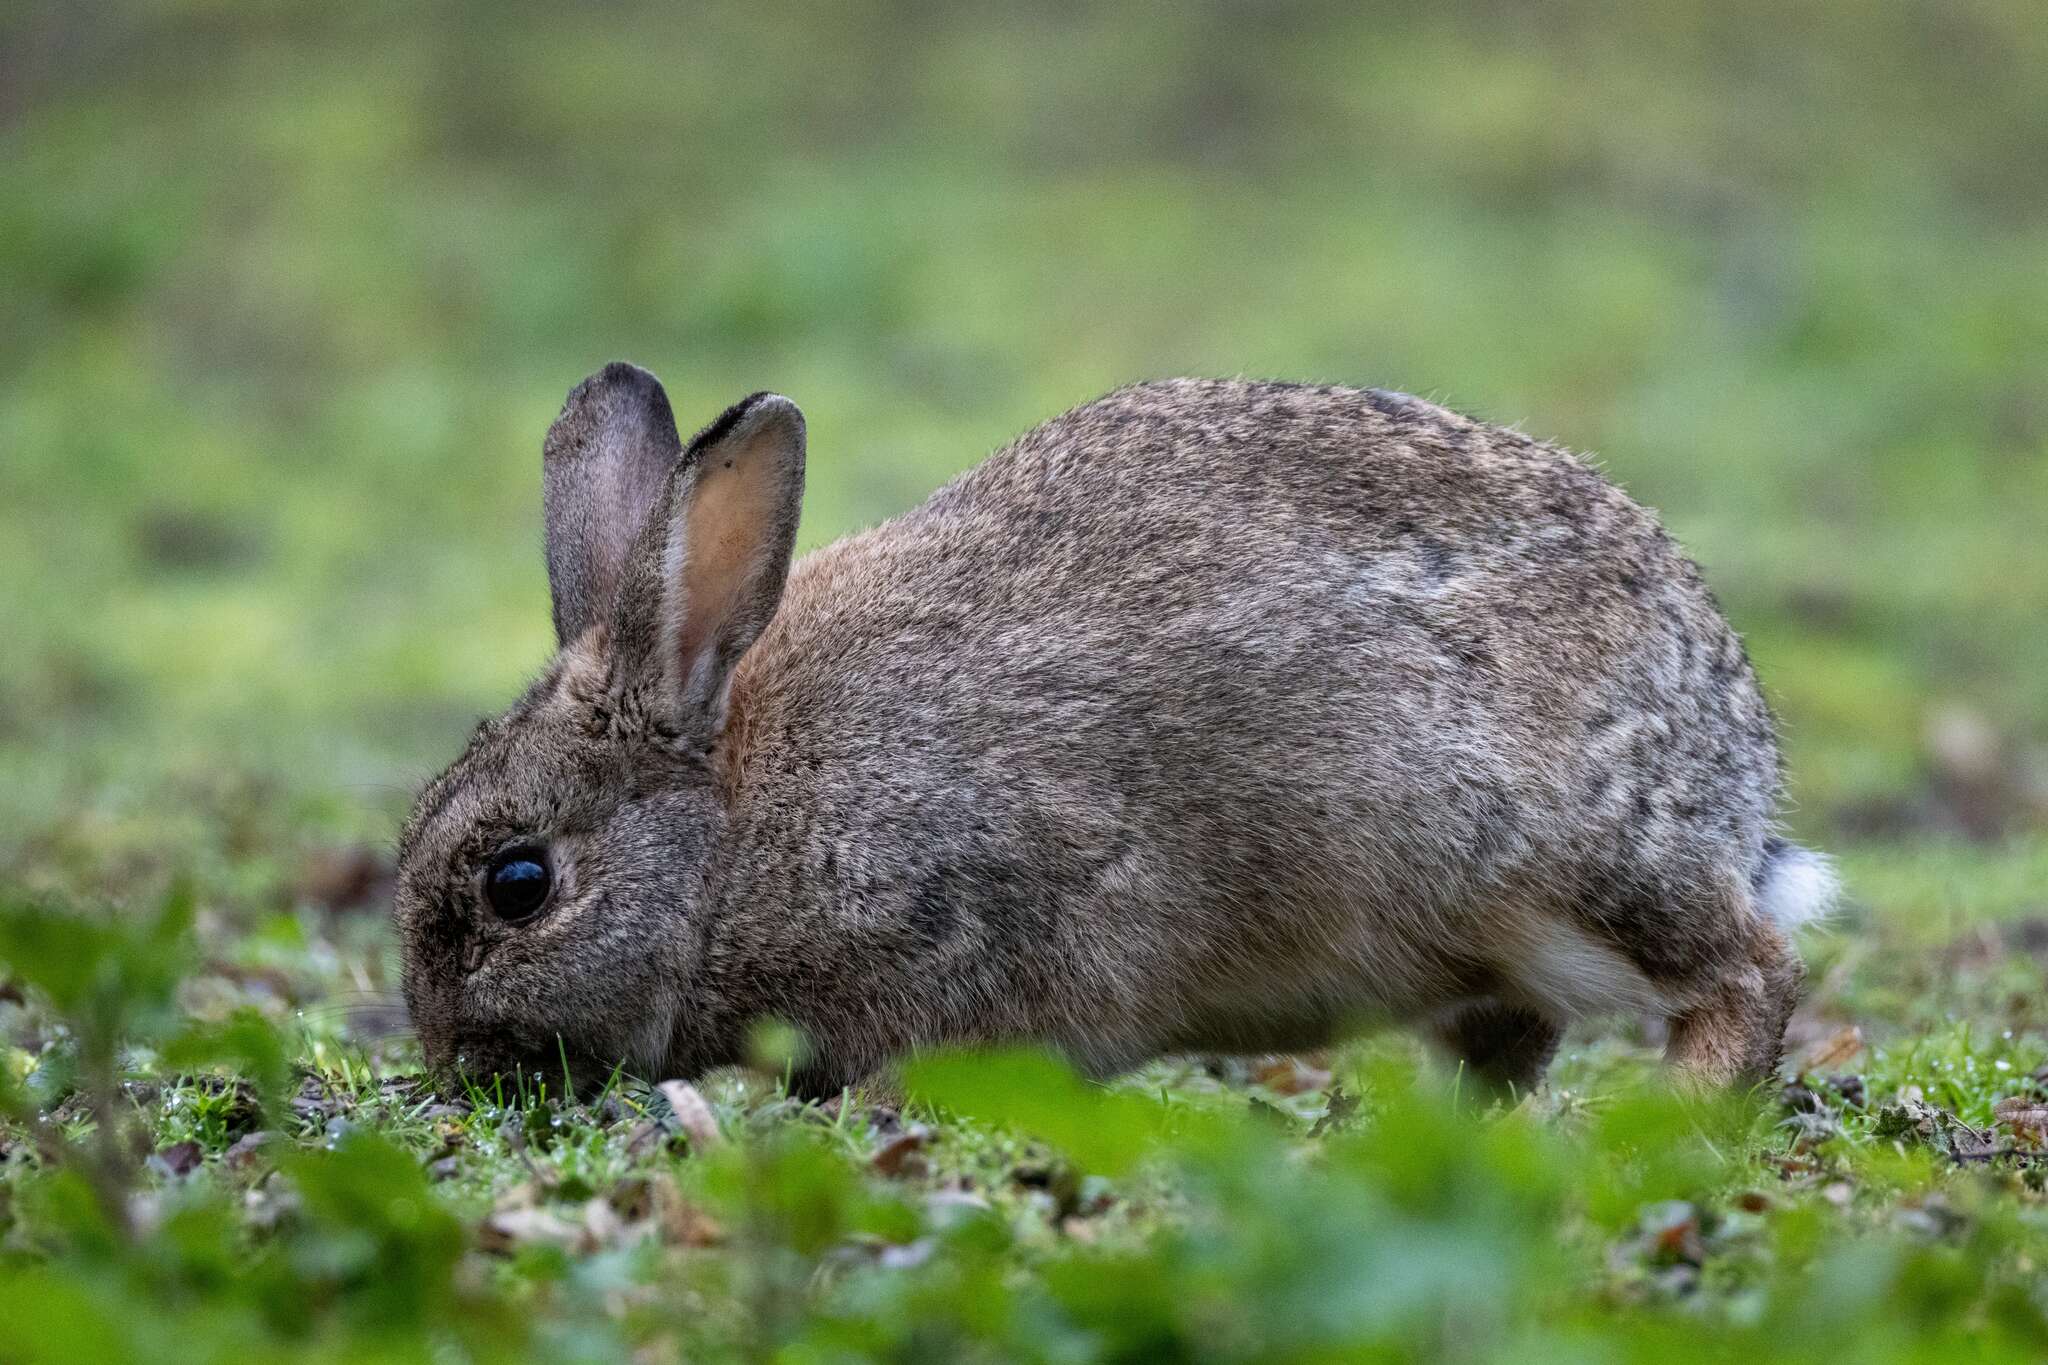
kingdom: Animalia
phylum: Chordata
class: Mammalia
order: Lagomorpha
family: Leporidae
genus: Oryctolagus
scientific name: Oryctolagus cuniculus
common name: European rabbit
